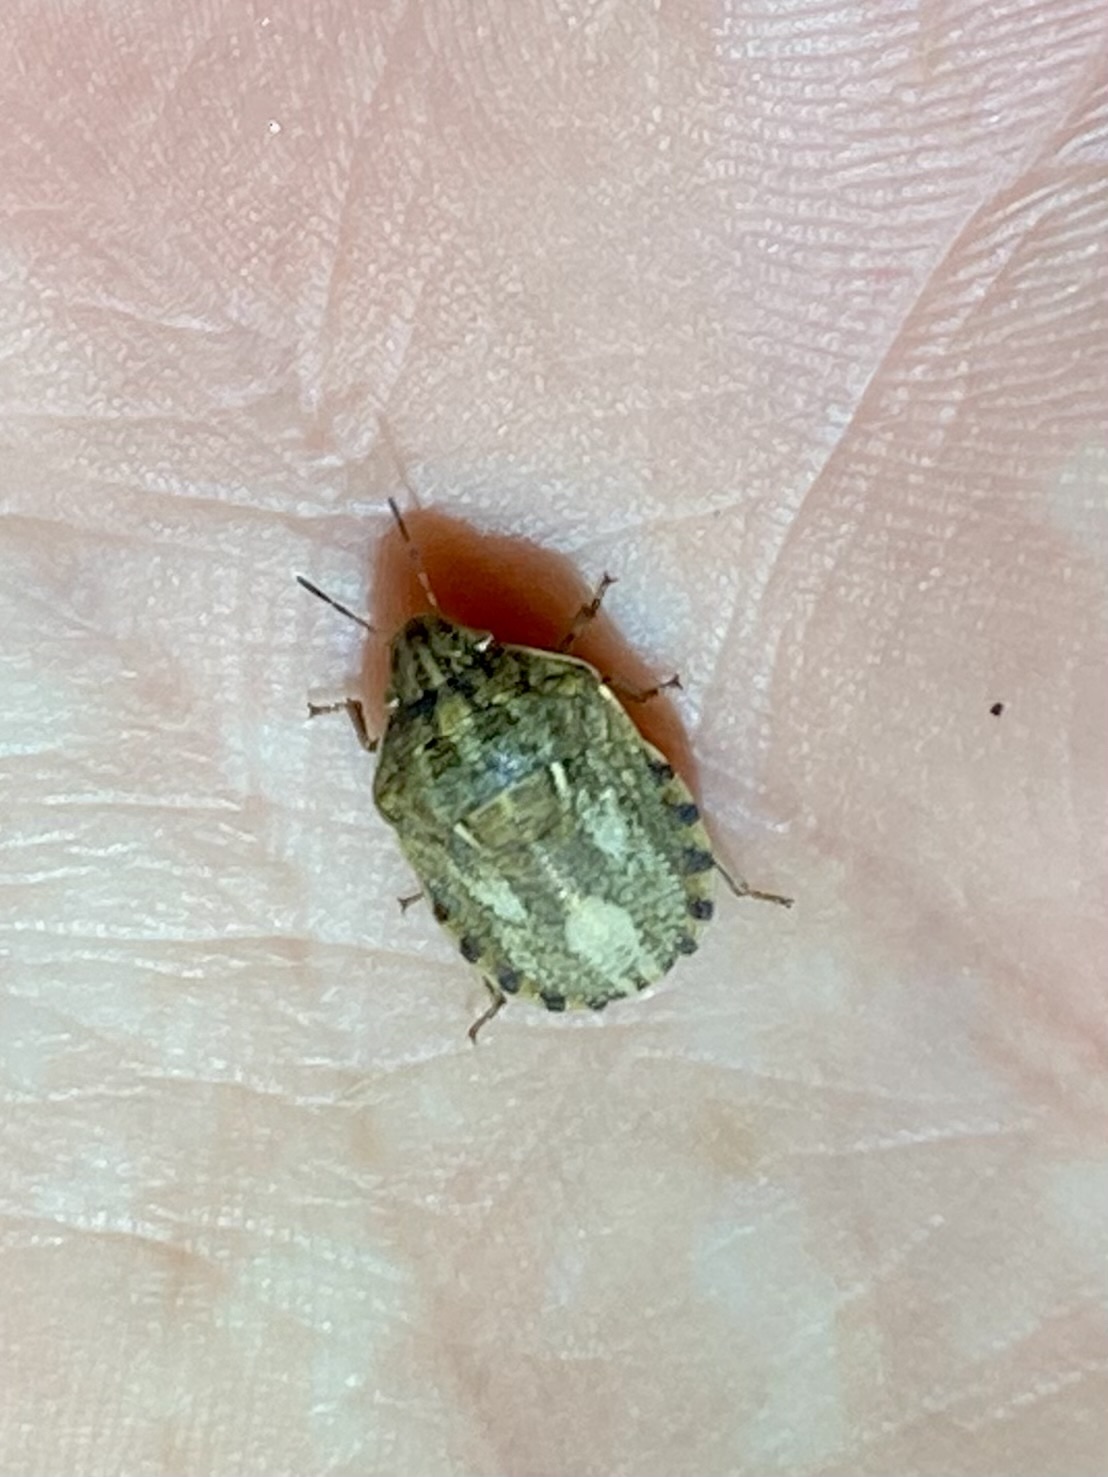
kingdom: Animalia
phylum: Arthropoda
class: Insecta
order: Hemiptera
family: Scutelleridae
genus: Eurygaster
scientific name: Eurygaster maura
